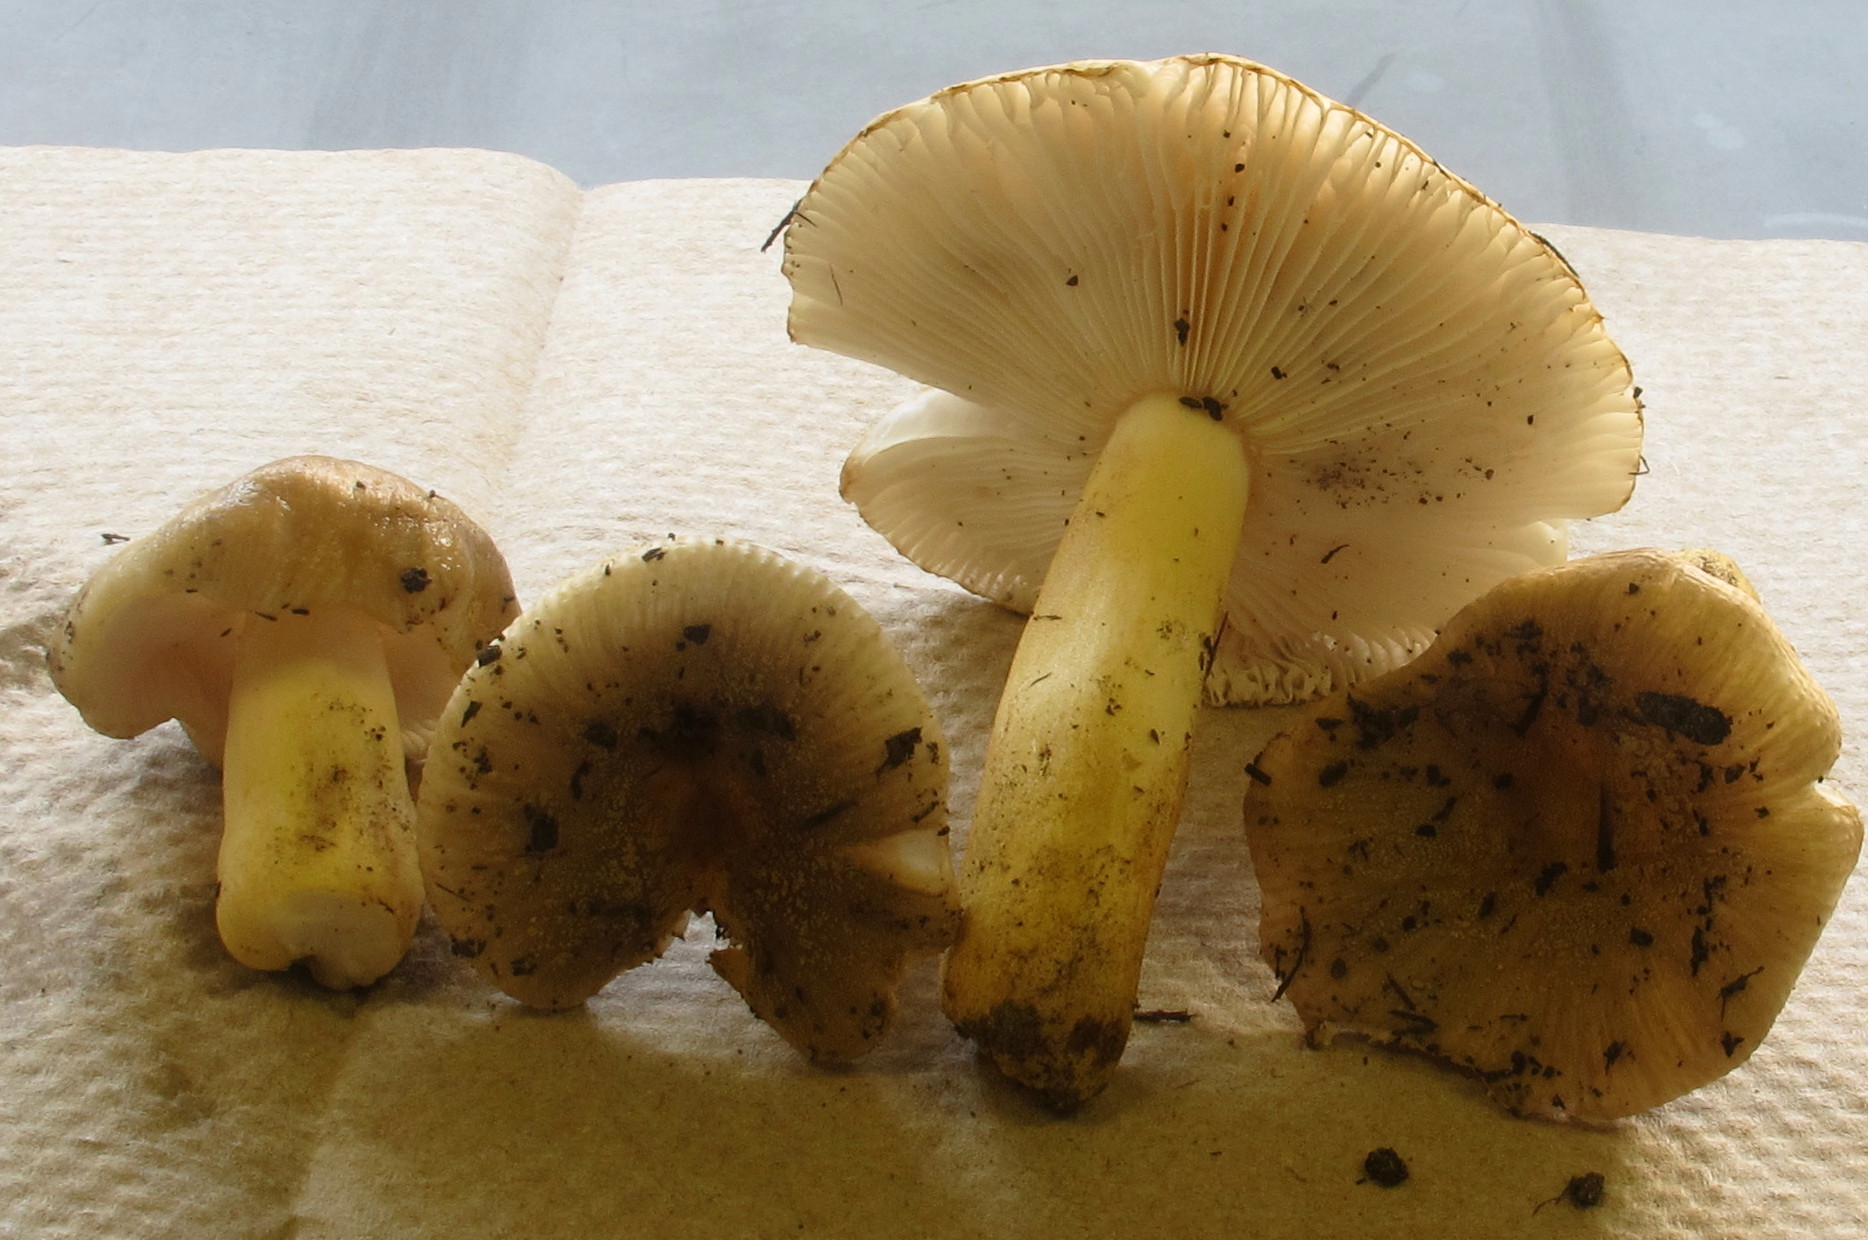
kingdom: Fungi
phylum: Basidiomycota
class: Agaricomycetes
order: Russulales
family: Russulaceae
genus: Russula
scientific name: Russula pulverulenta
